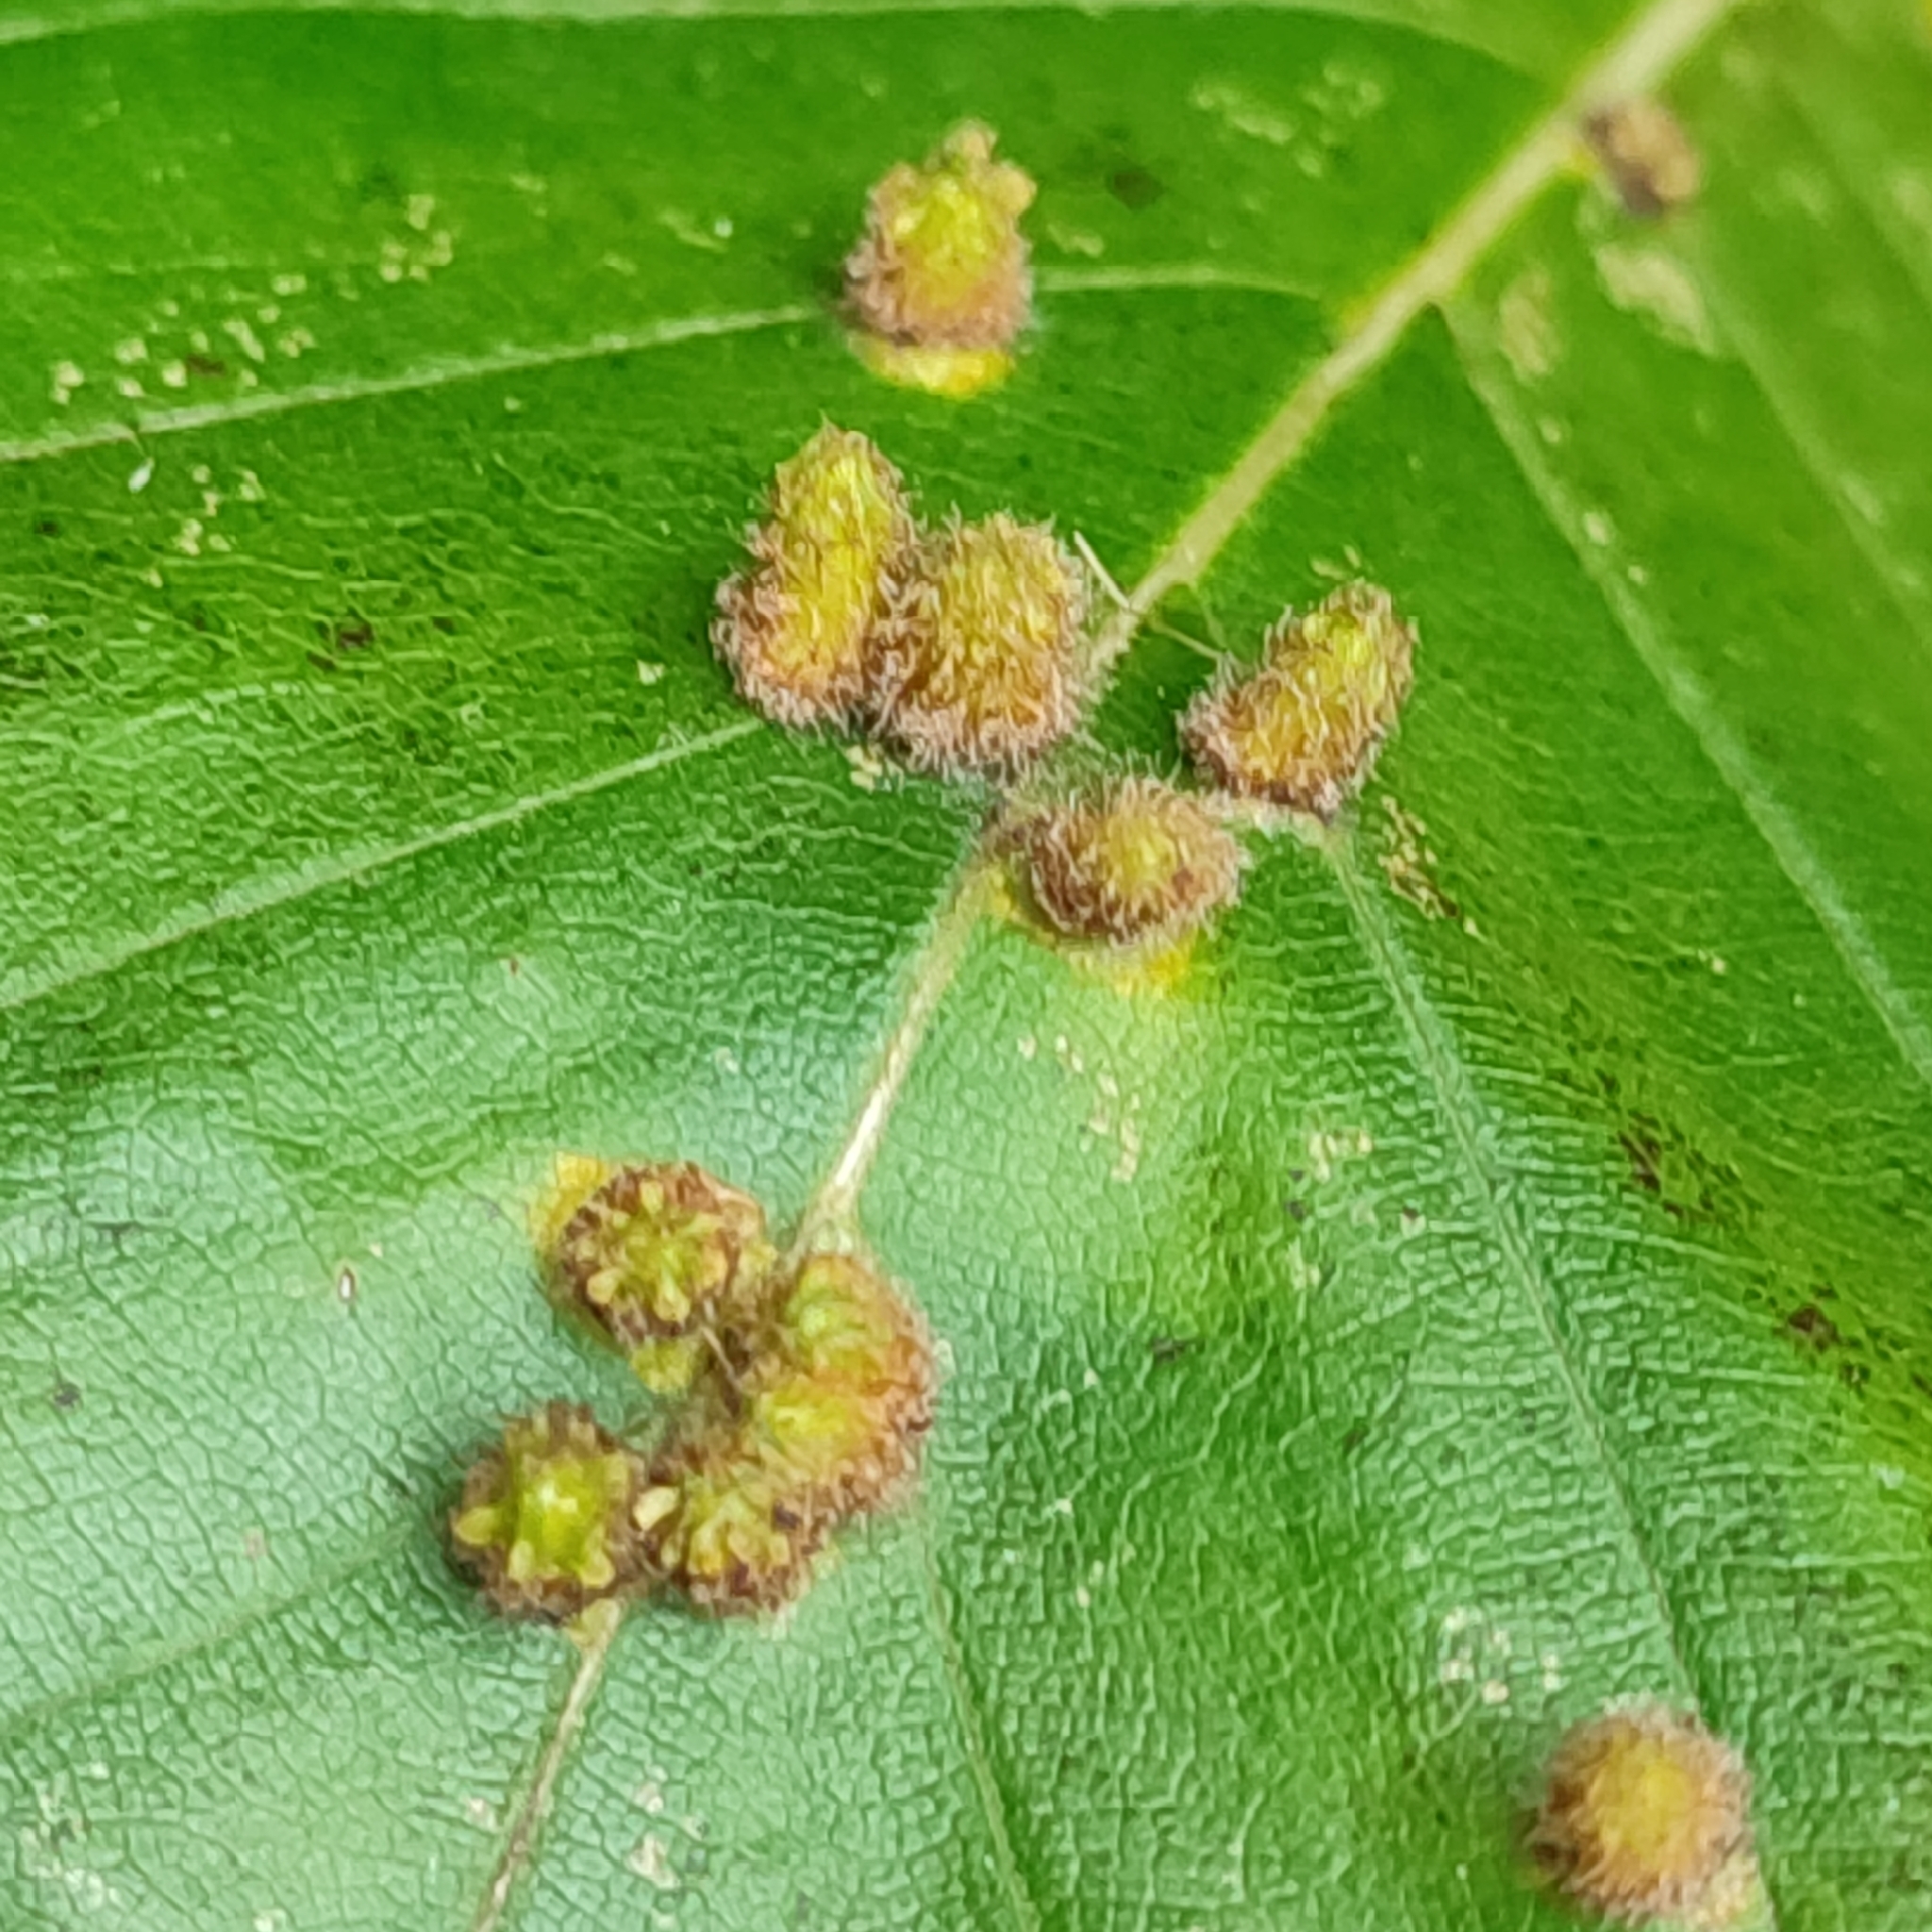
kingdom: Animalia
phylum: Arthropoda
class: Insecta
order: Diptera
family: Cecidomyiidae
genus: Hartigiola
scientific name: Hartigiola annulipes
